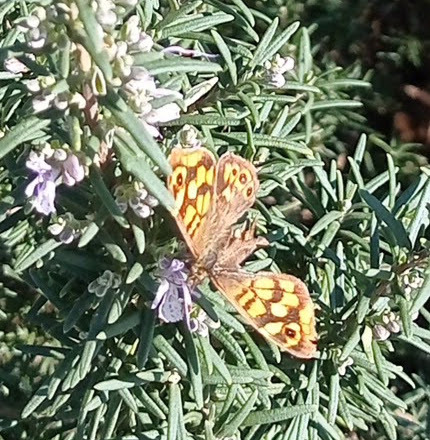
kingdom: Animalia
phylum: Arthropoda
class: Insecta
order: Lepidoptera
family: Nymphalidae
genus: Pararge
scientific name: Pararge aegeria
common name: Speckled wood
